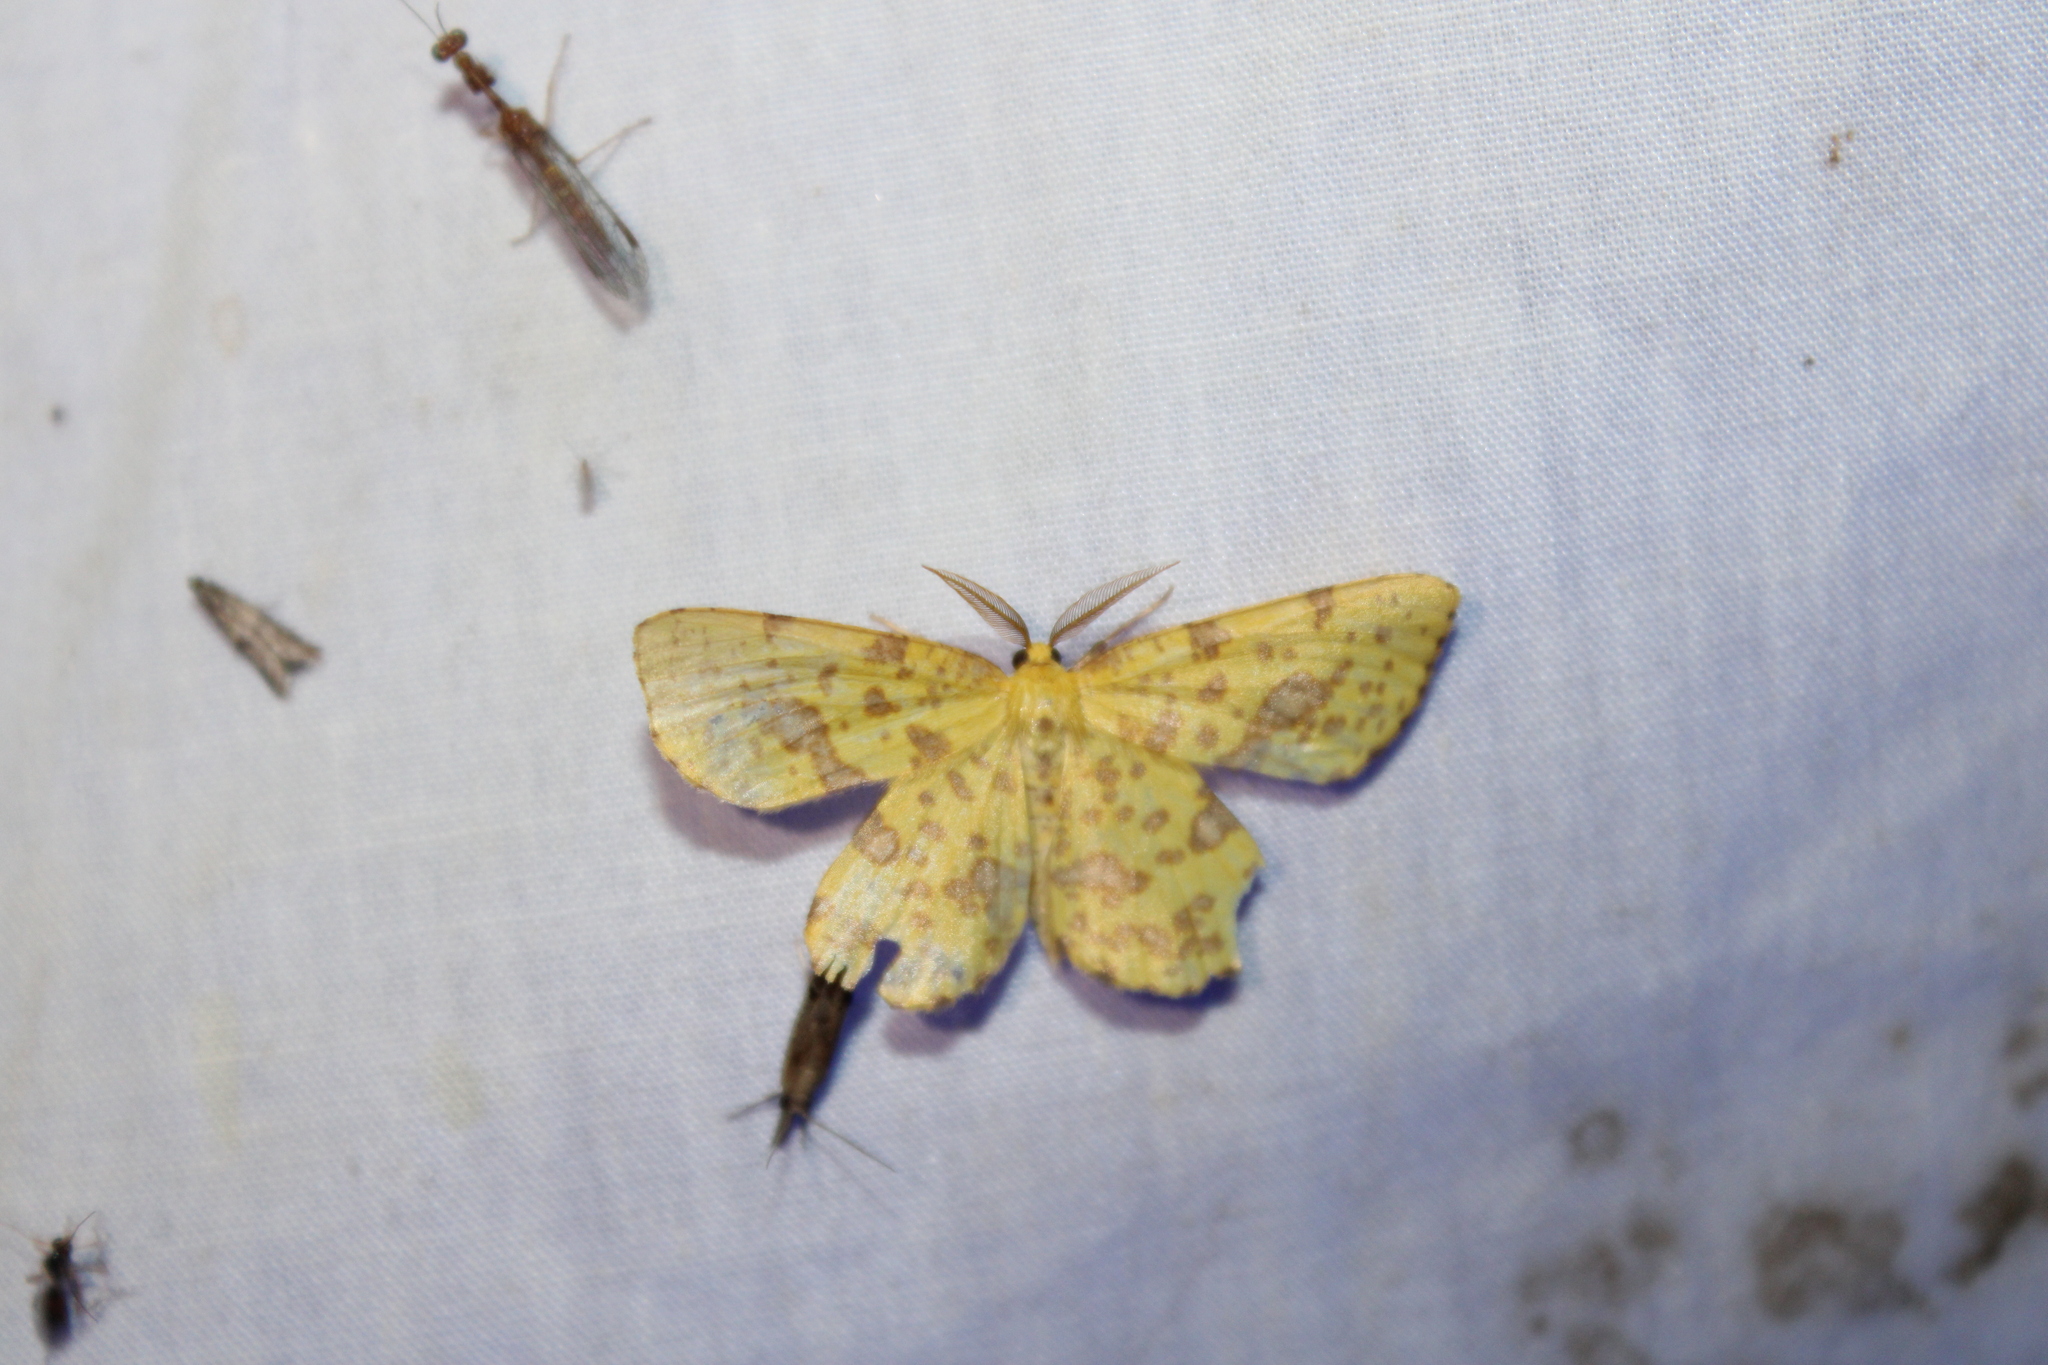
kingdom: Animalia
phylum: Arthropoda
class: Insecta
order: Lepidoptera
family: Geometridae
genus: Xanthotype
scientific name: Xanthotype
